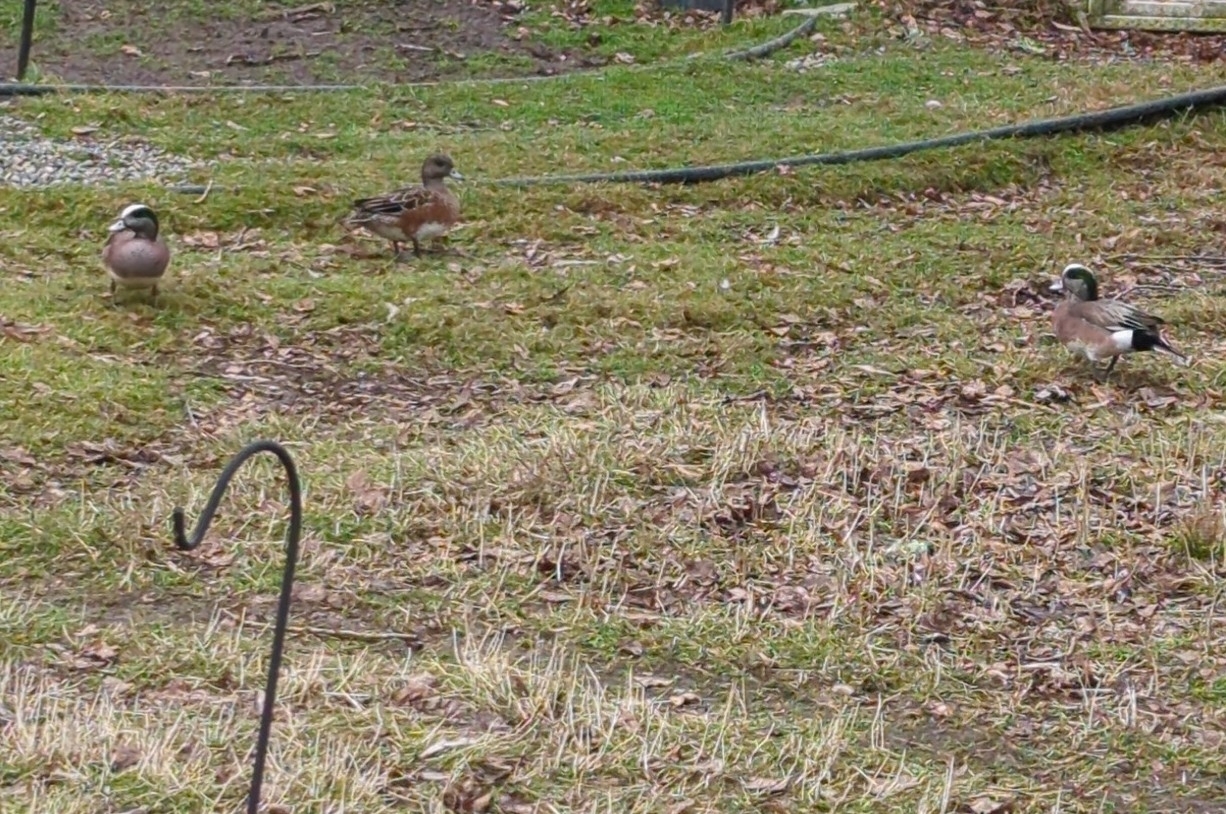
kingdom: Animalia
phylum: Chordata
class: Aves
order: Anseriformes
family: Anatidae
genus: Mareca
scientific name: Mareca americana
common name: American wigeon
